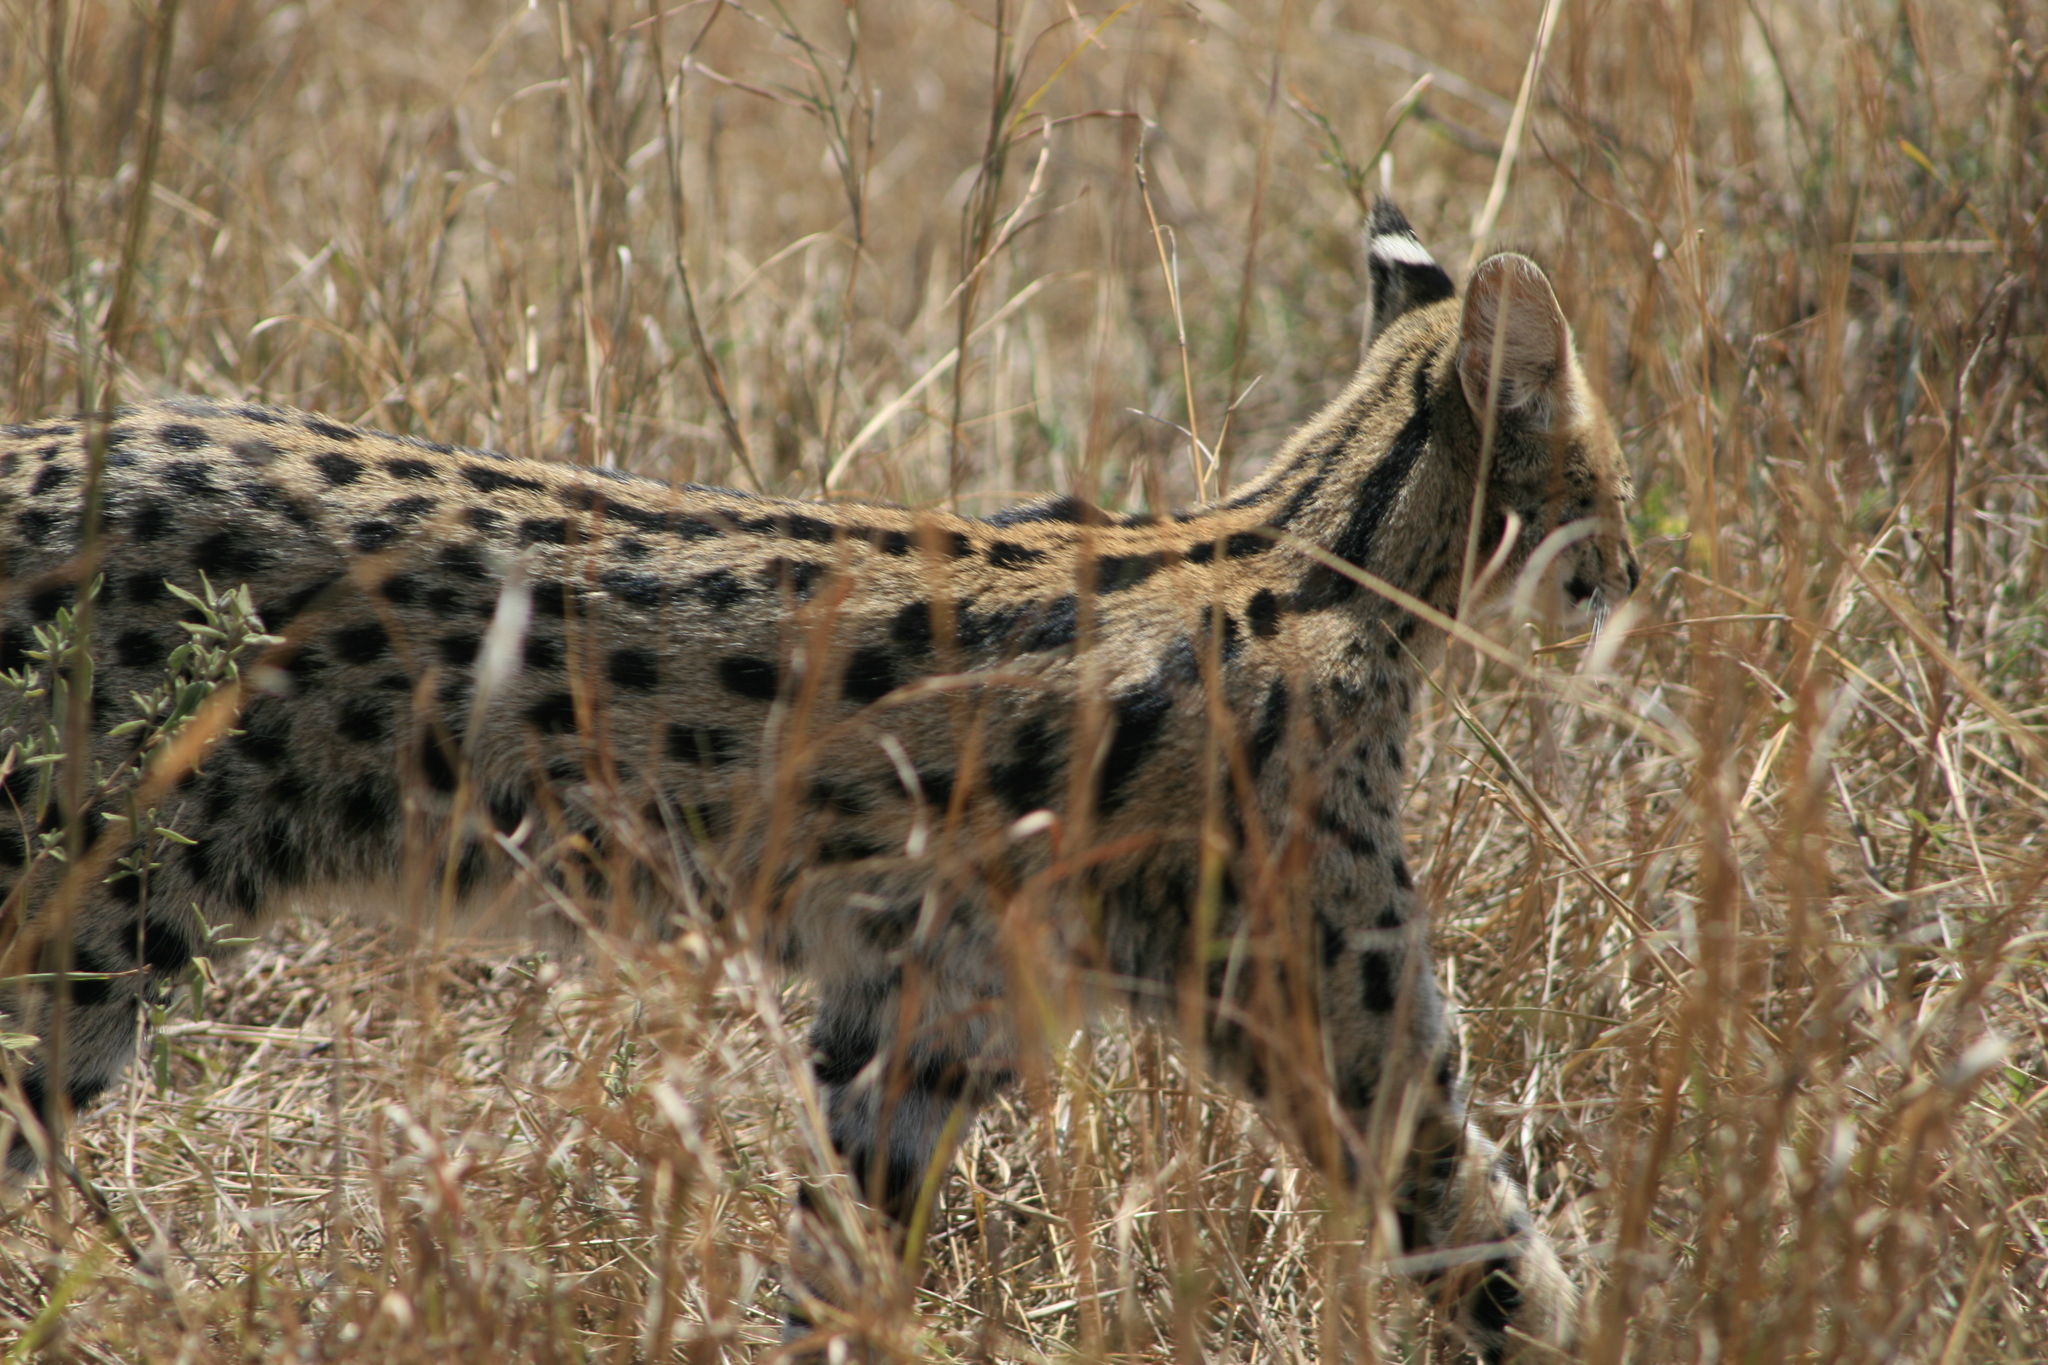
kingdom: Animalia
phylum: Chordata
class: Mammalia
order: Carnivora
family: Felidae
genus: Leptailurus
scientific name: Leptailurus serval
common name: Serval
